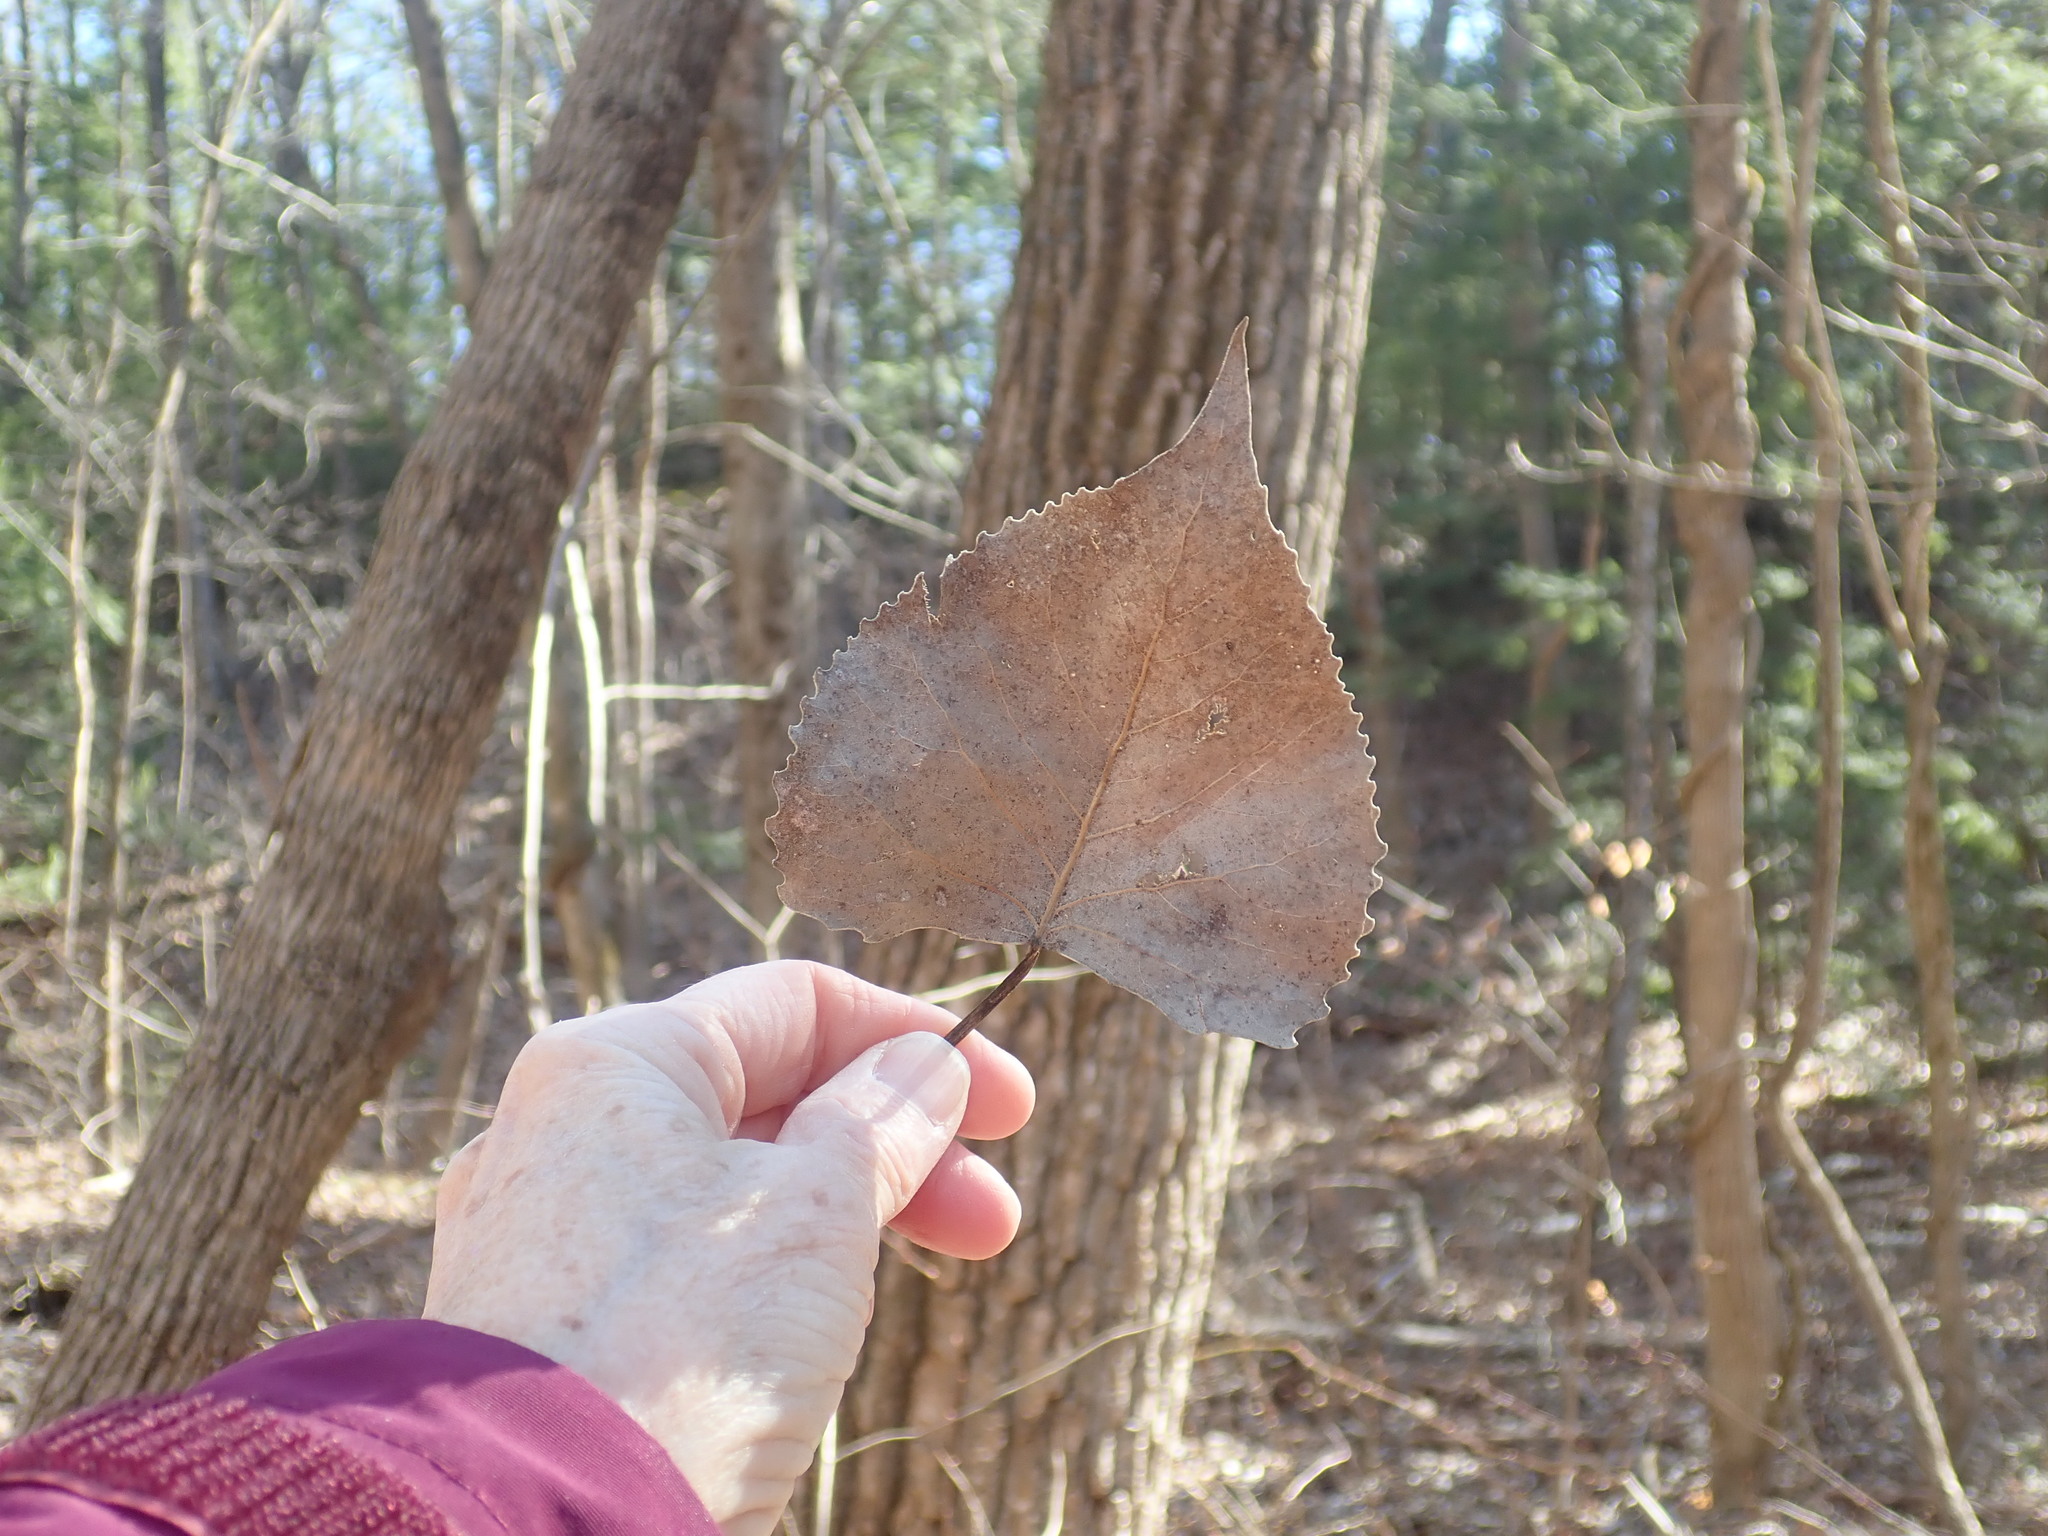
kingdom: Plantae
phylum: Tracheophyta
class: Magnoliopsida
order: Malpighiales
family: Salicaceae
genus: Populus
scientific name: Populus deltoides
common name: Eastern cottonwood
